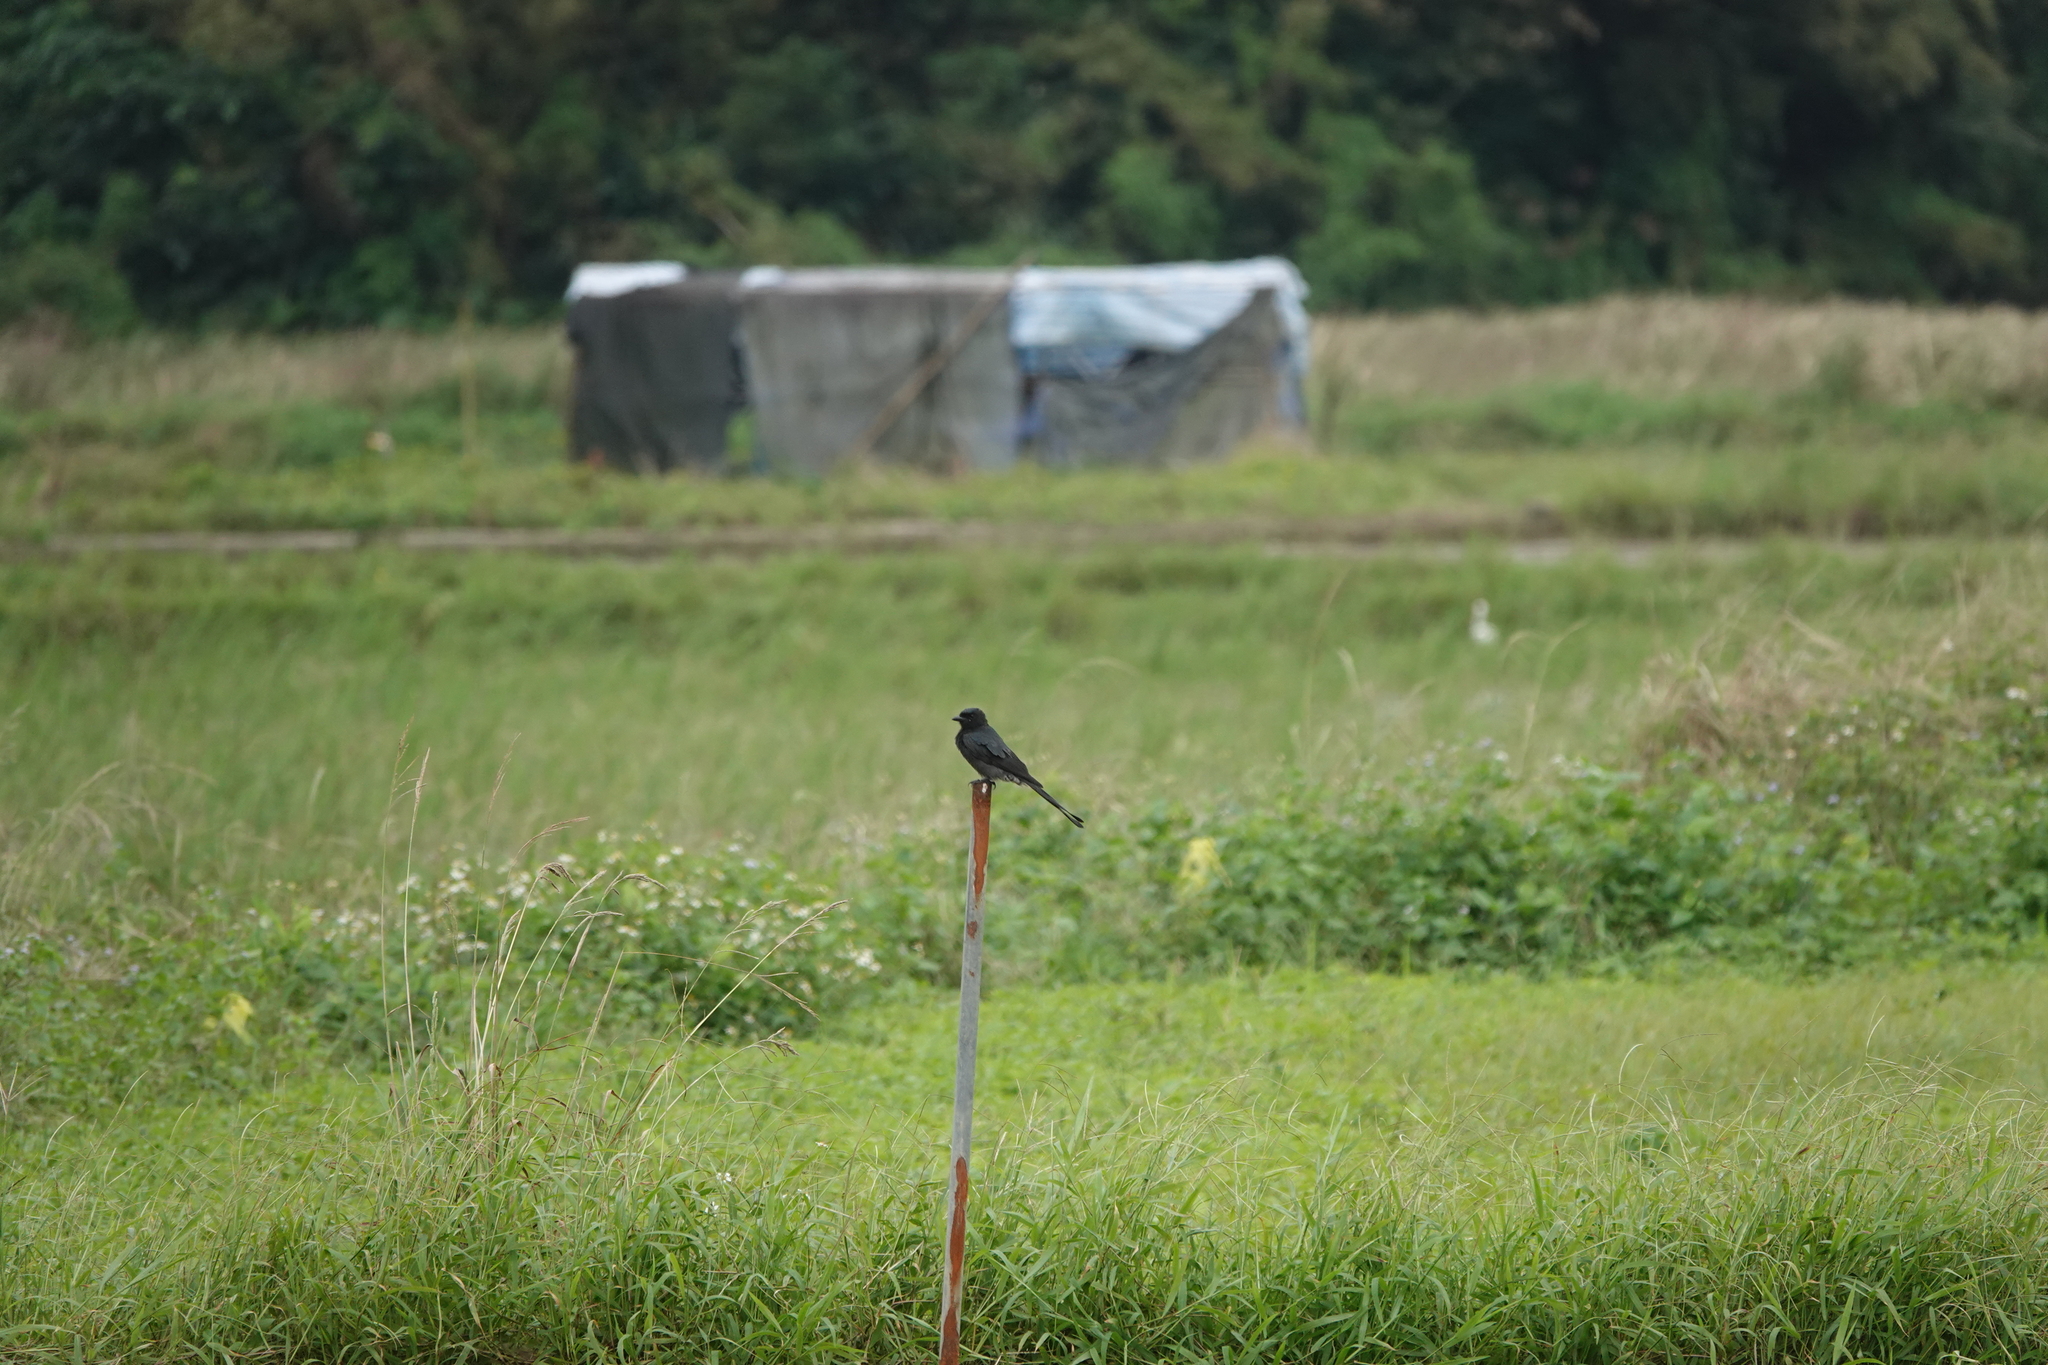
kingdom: Animalia
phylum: Chordata
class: Aves
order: Passeriformes
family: Dicruridae
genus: Dicrurus
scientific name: Dicrurus macrocercus
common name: Black drongo
